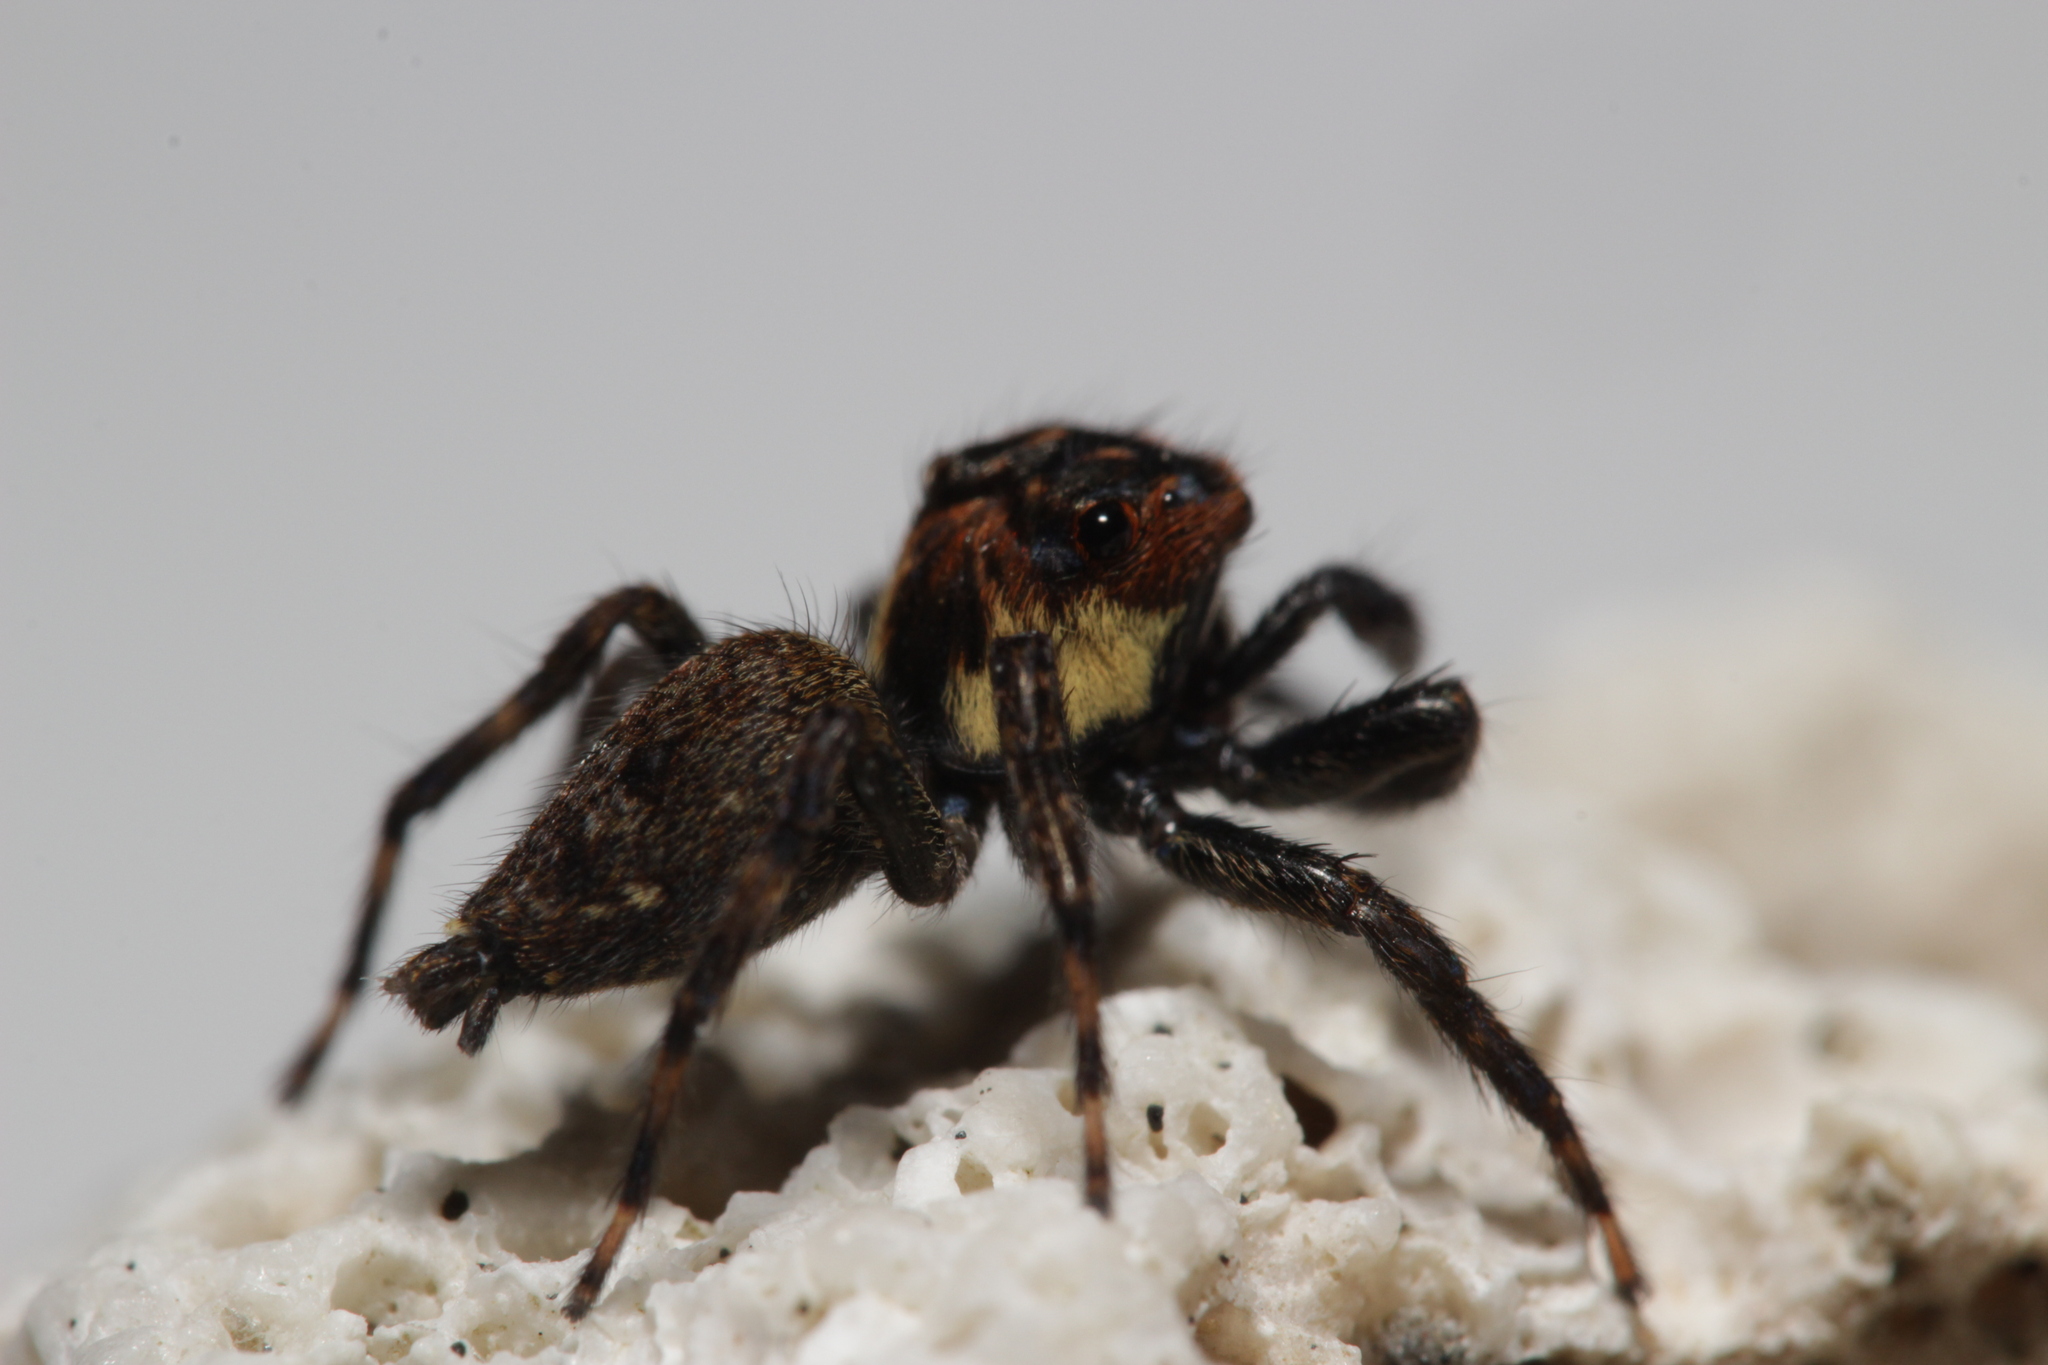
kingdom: Animalia
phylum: Arthropoda
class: Arachnida
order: Araneae
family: Salticidae
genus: Triggella
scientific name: Triggella infuscata
